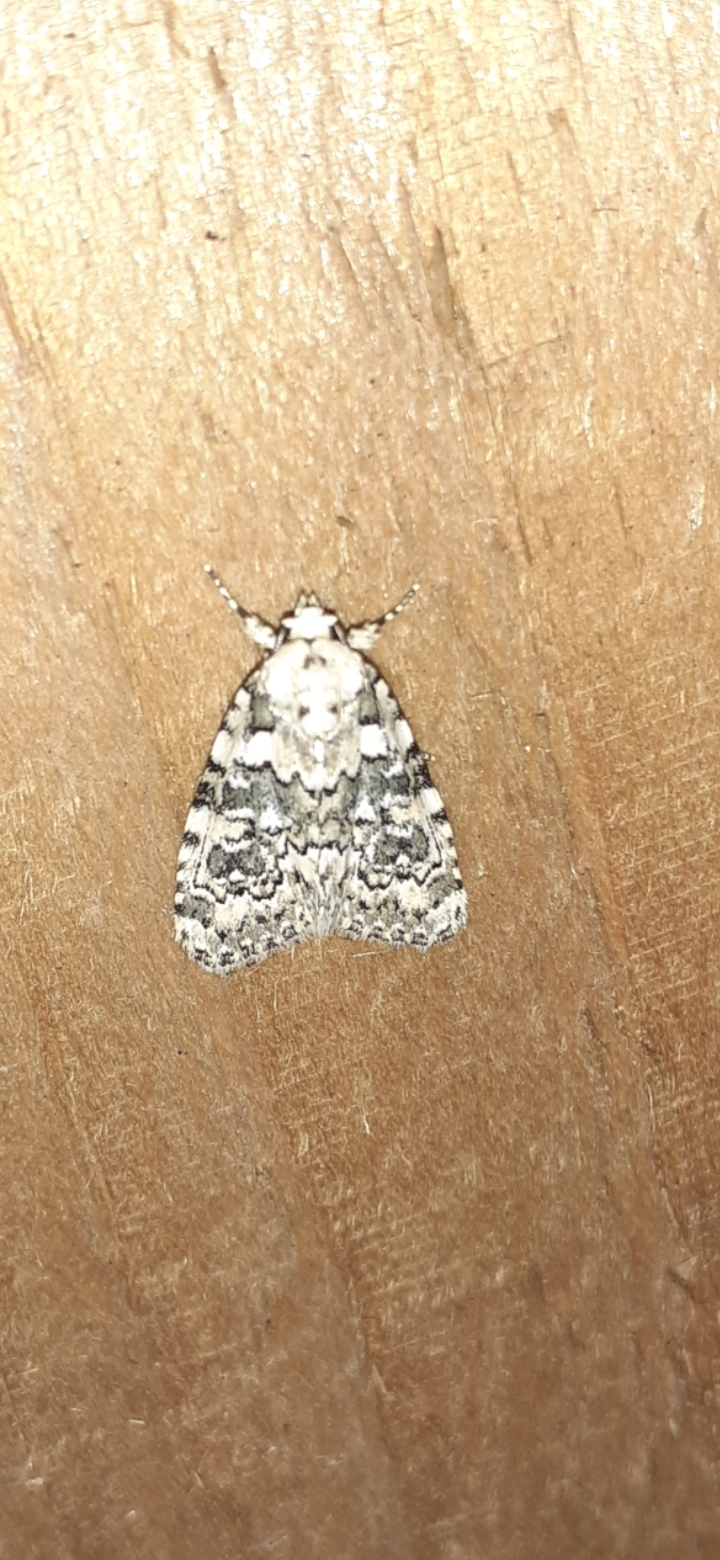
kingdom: Animalia
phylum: Arthropoda
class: Insecta
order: Lepidoptera
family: Noctuidae
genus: Bryophila
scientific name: Bryophila domestica
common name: Marbled beauty
